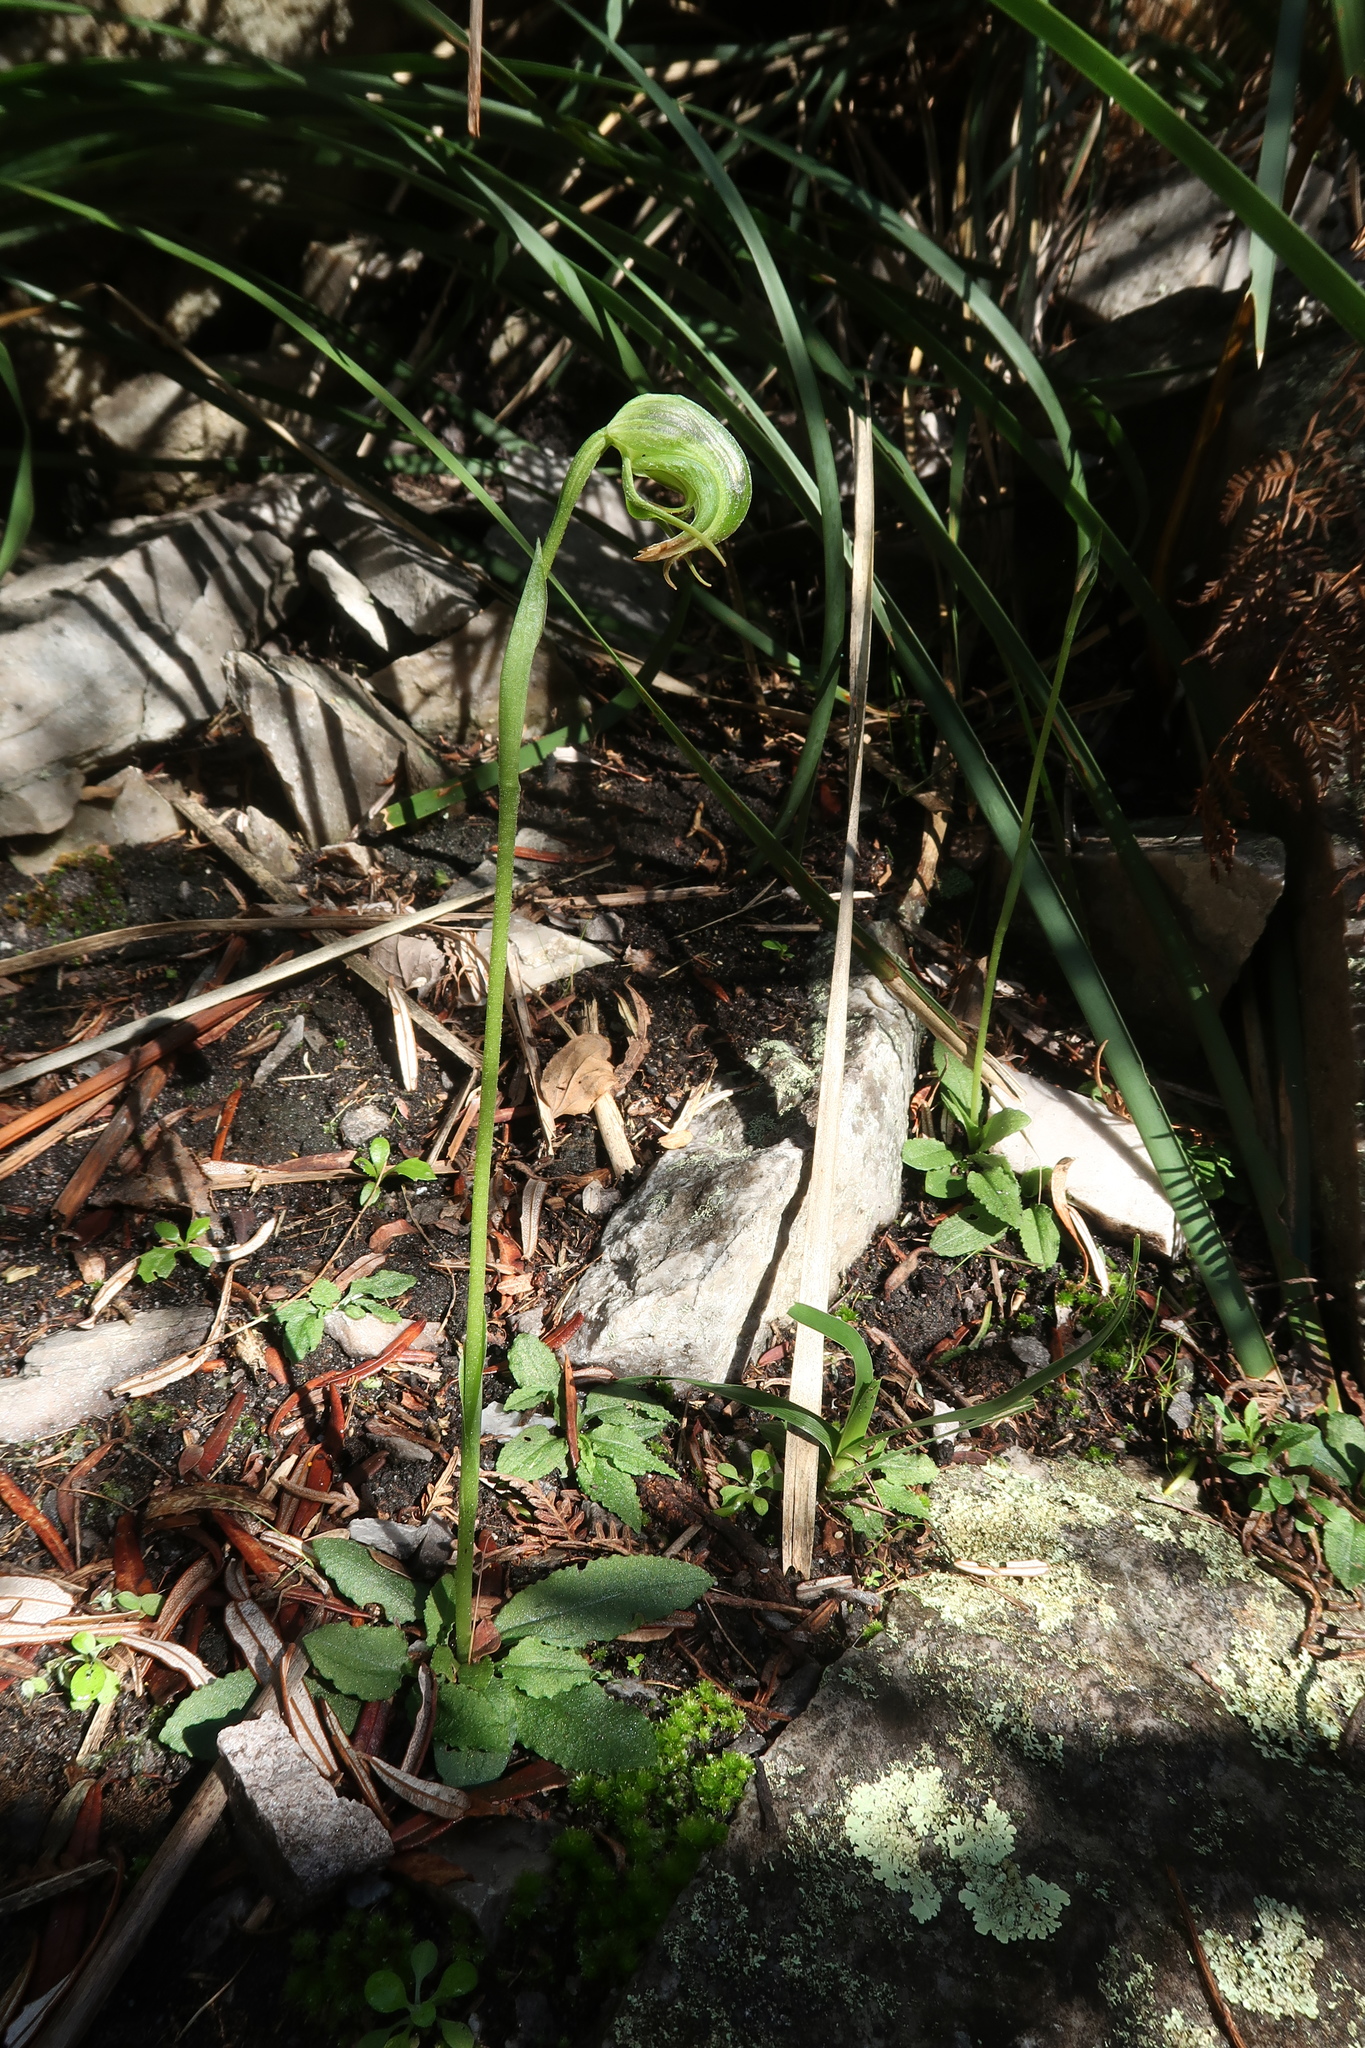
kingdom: Plantae
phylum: Tracheophyta
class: Liliopsida
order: Asparagales
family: Orchidaceae
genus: Pterostylis
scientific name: Pterostylis nutans
